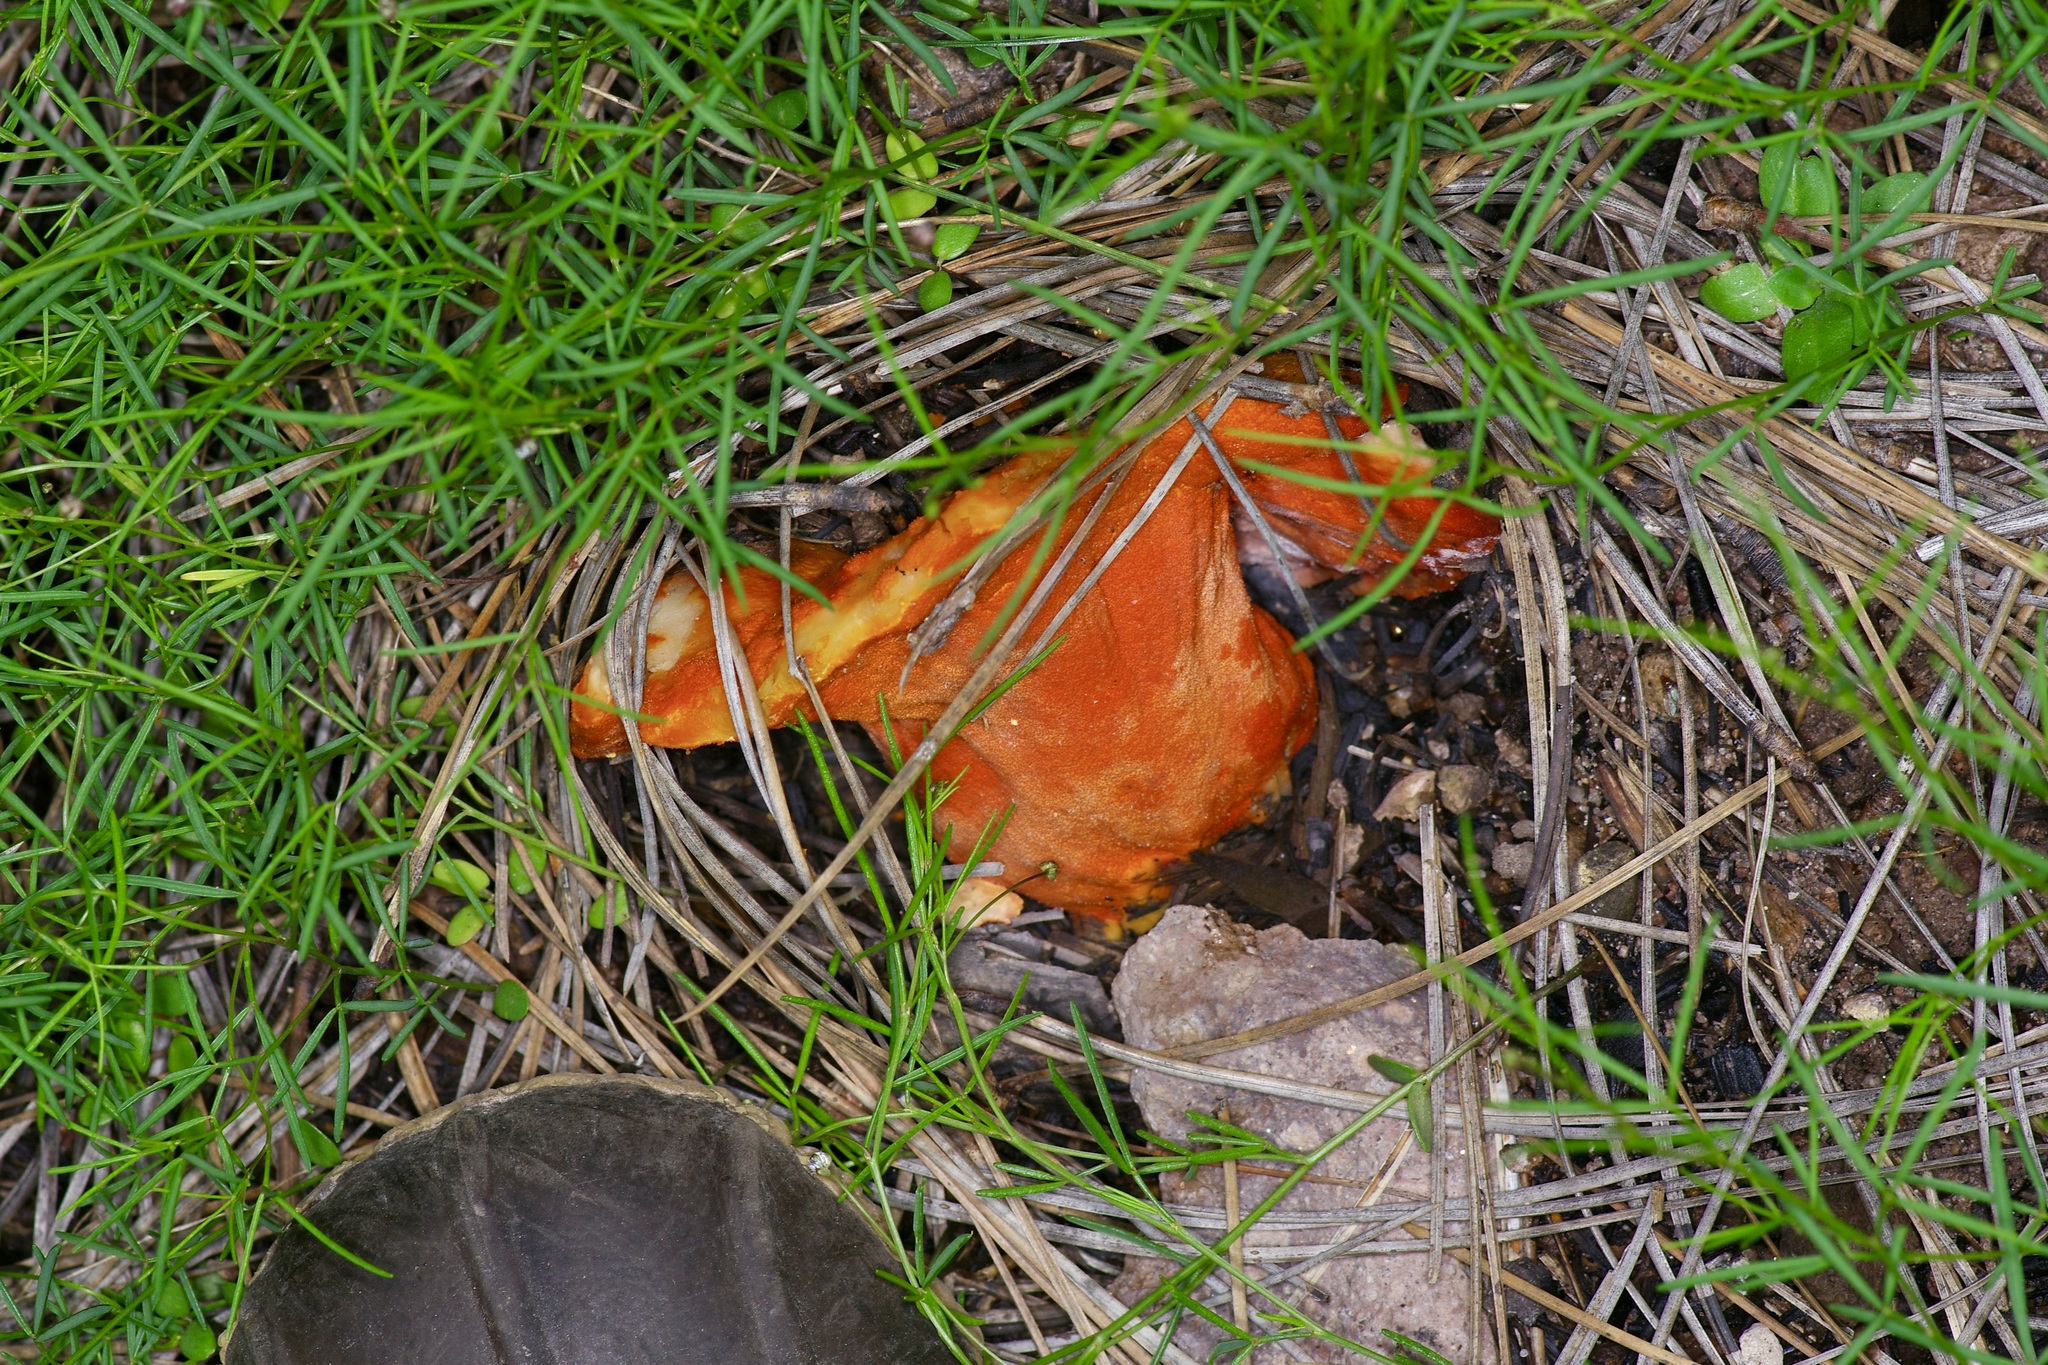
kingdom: Fungi
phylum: Ascomycota
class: Sordariomycetes
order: Hypocreales
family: Hypocreaceae
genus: Hypomyces
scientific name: Hypomyces lactifluorum
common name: Lobster mushroom
